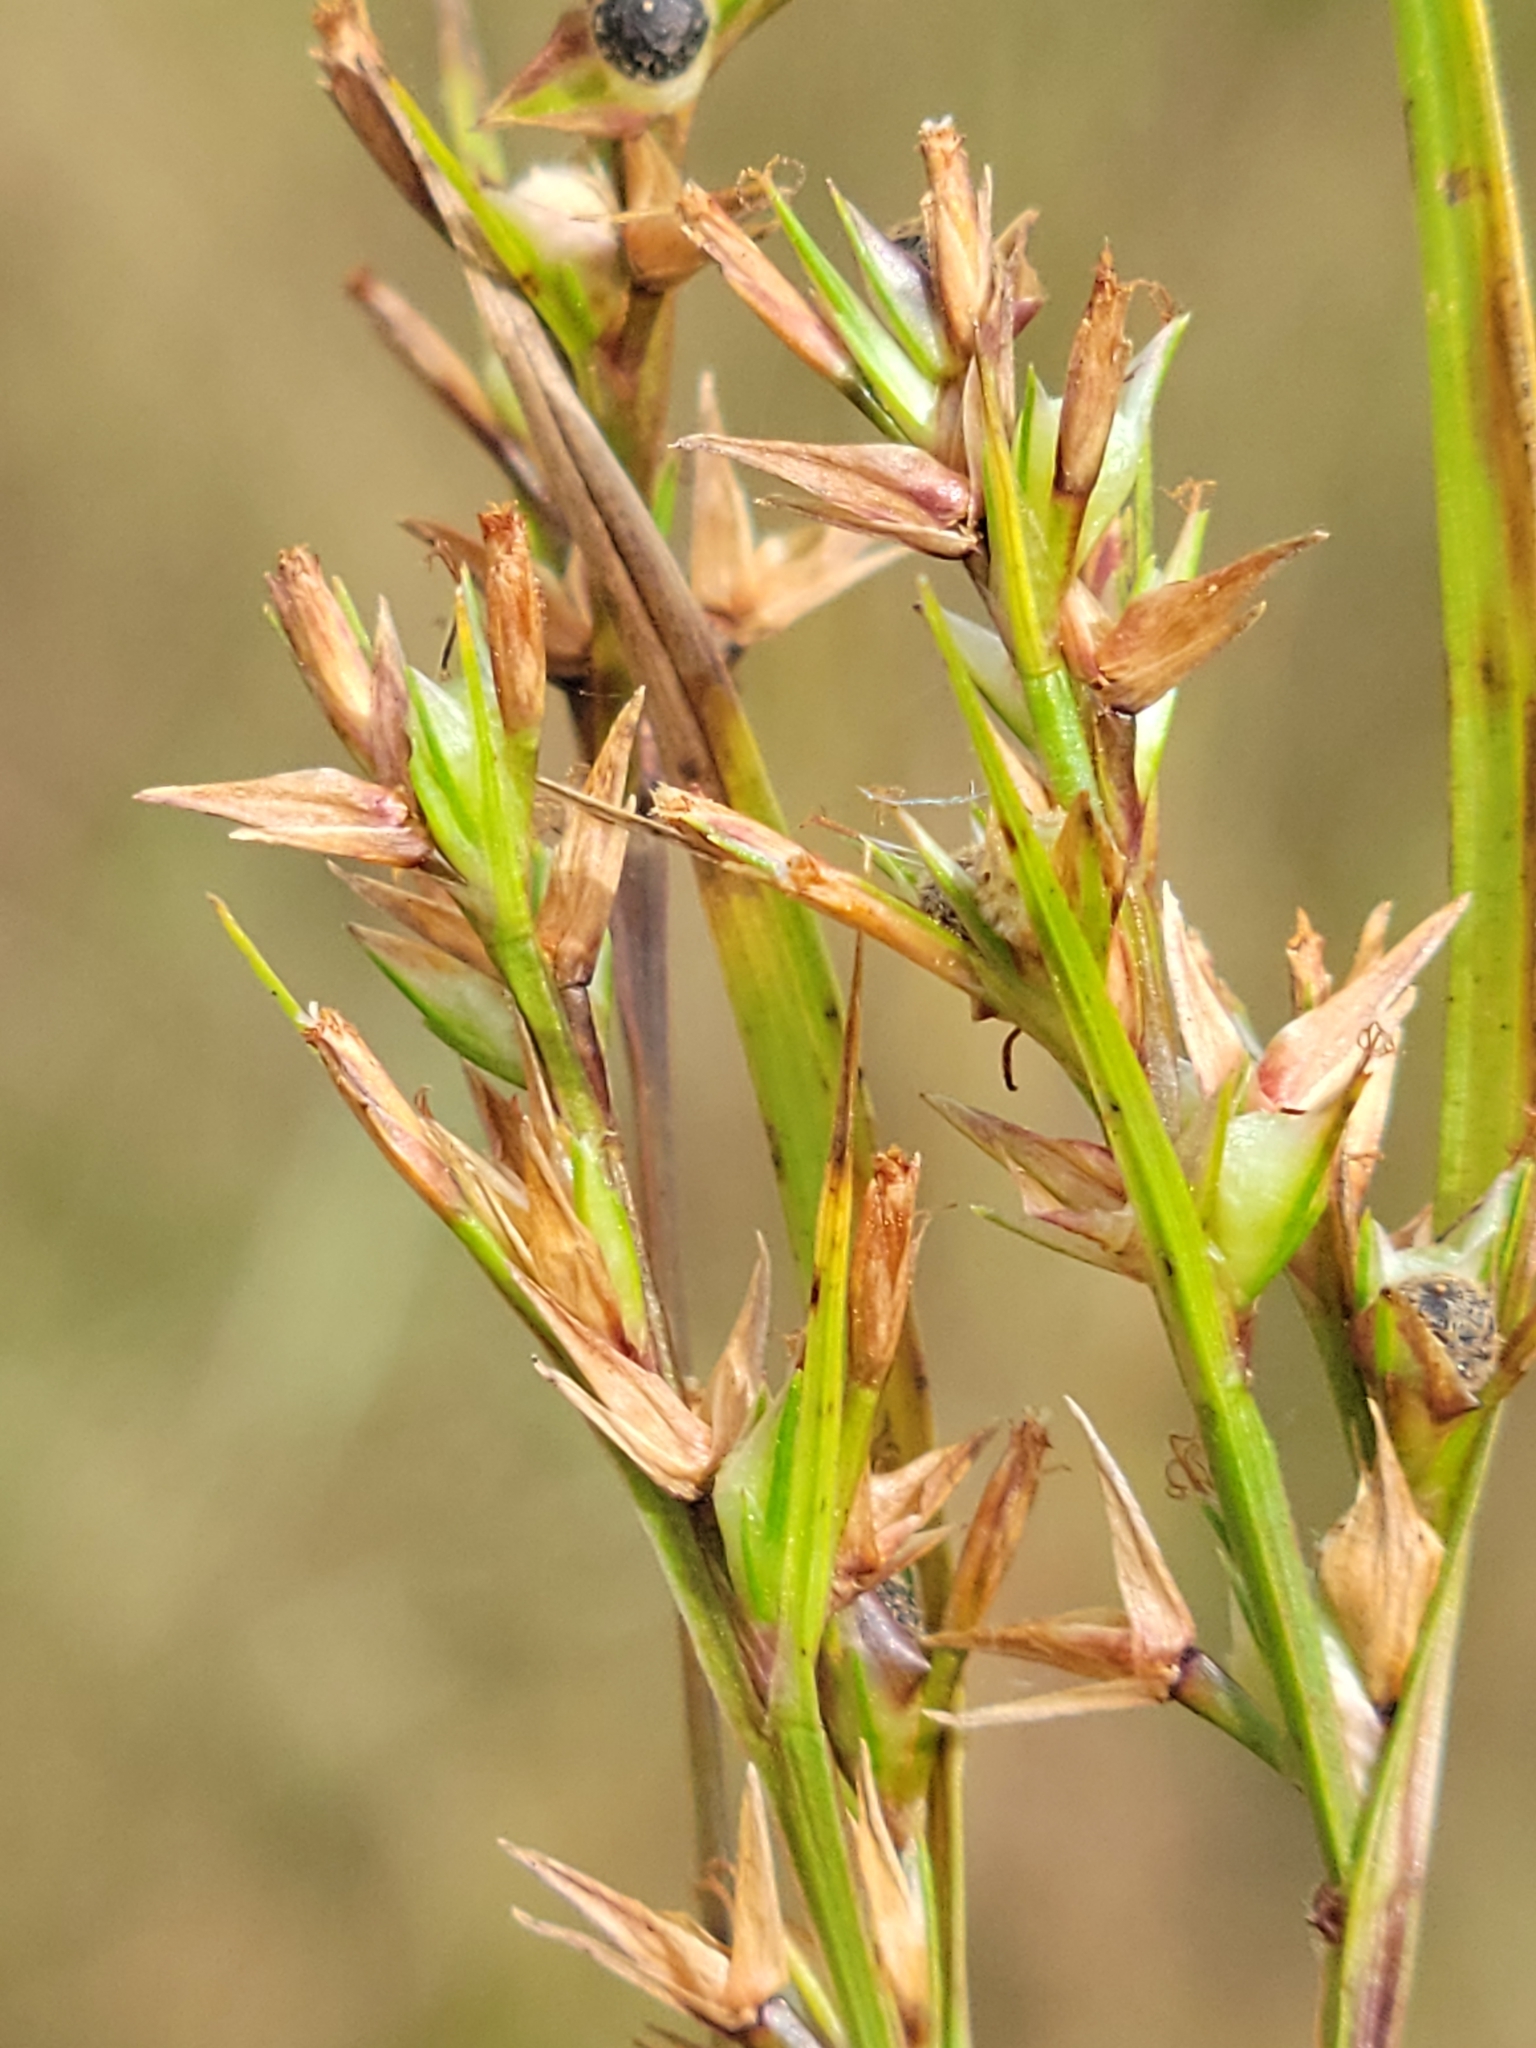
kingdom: Plantae
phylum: Tracheophyta
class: Liliopsida
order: Poales
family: Cyperaceae
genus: Scleria
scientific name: Scleria muehlenbergii
